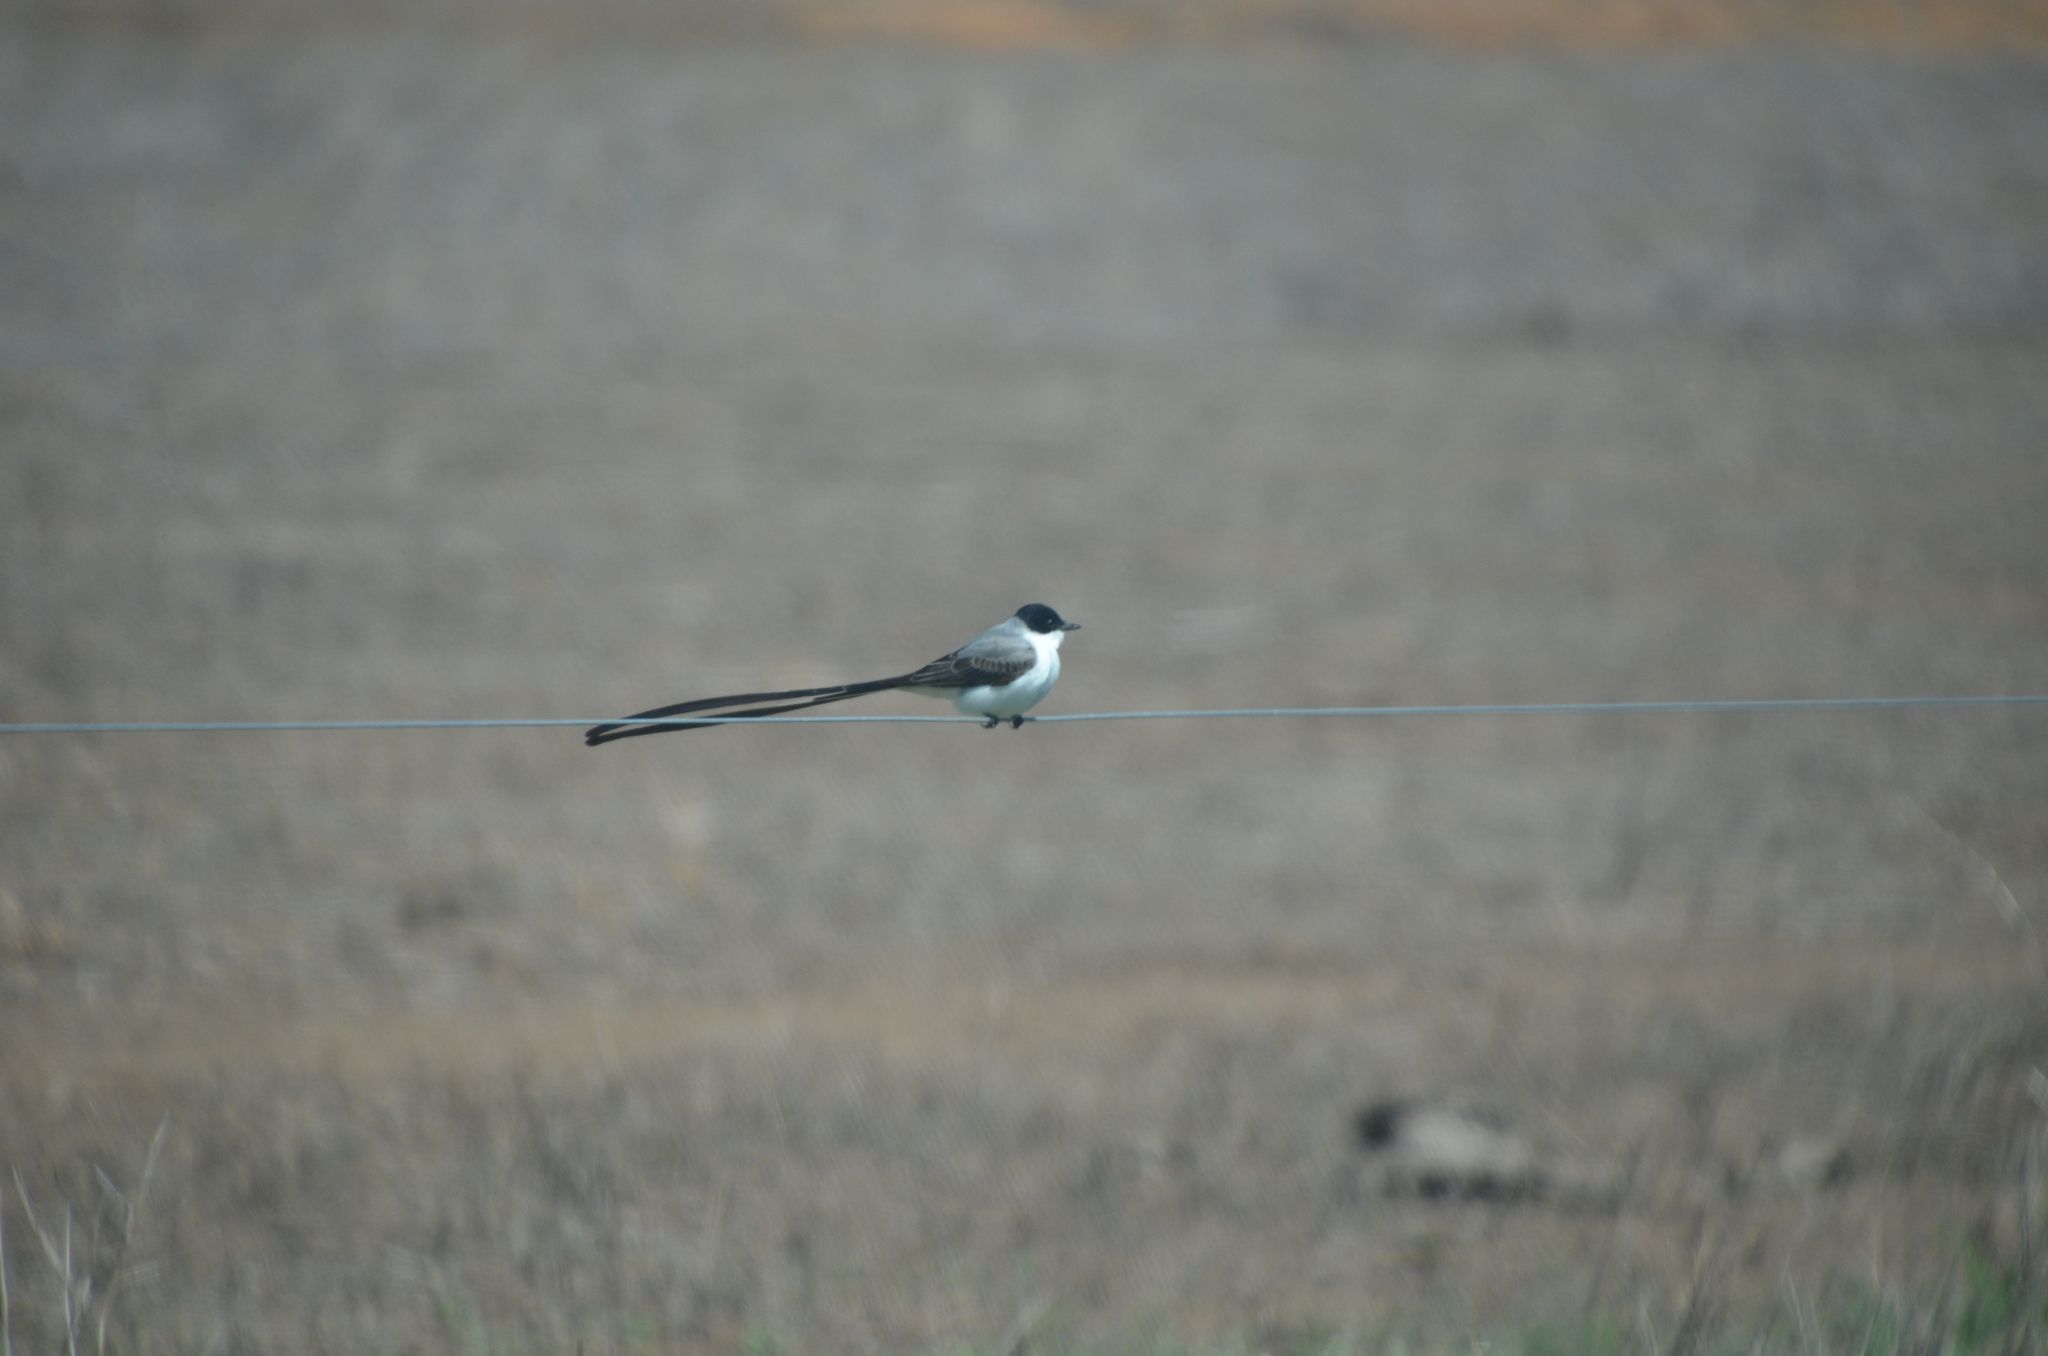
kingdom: Animalia
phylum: Chordata
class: Aves
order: Passeriformes
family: Tyrannidae
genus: Tyrannus
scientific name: Tyrannus savana
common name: Fork-tailed flycatcher
